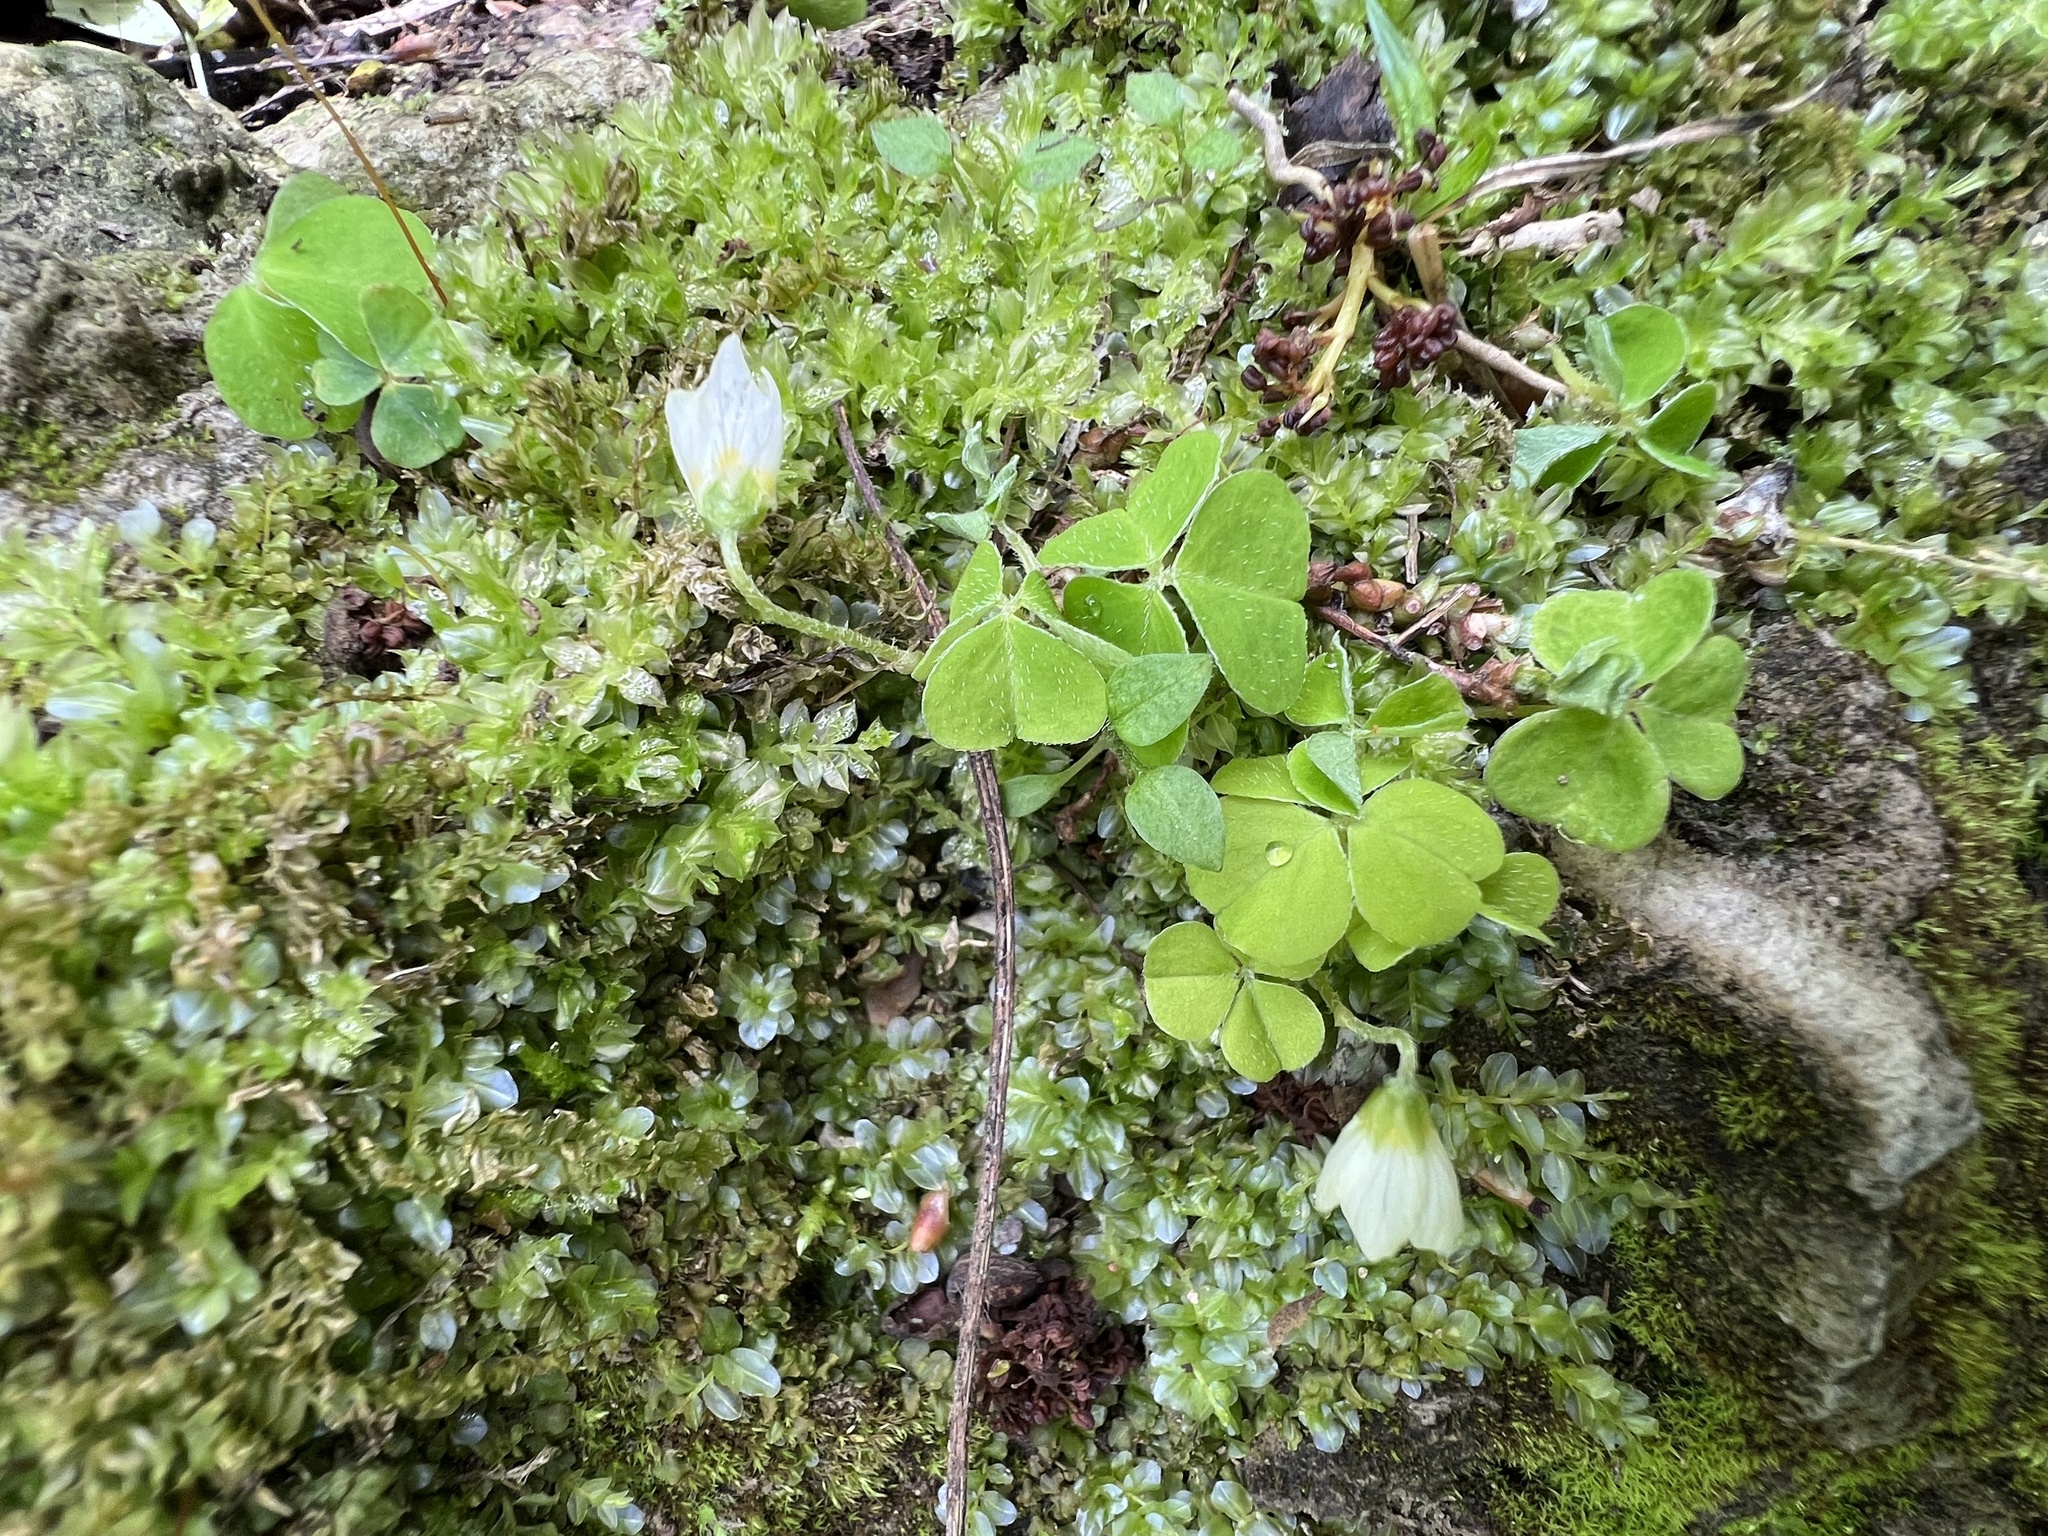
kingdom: Plantae
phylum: Tracheophyta
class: Magnoliopsida
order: Oxalidales
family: Oxalidaceae
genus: Oxalis
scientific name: Oxalis acetosella
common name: Wood-sorrel
